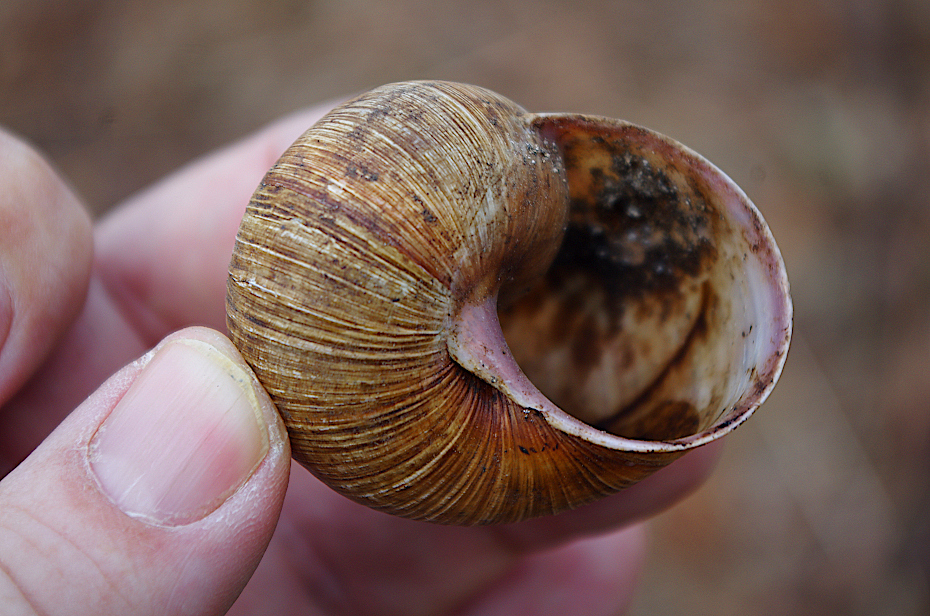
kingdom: Animalia
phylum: Mollusca
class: Gastropoda
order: Stylommatophora
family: Helicidae
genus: Helix
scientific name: Helix pomatia
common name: Roman snail
